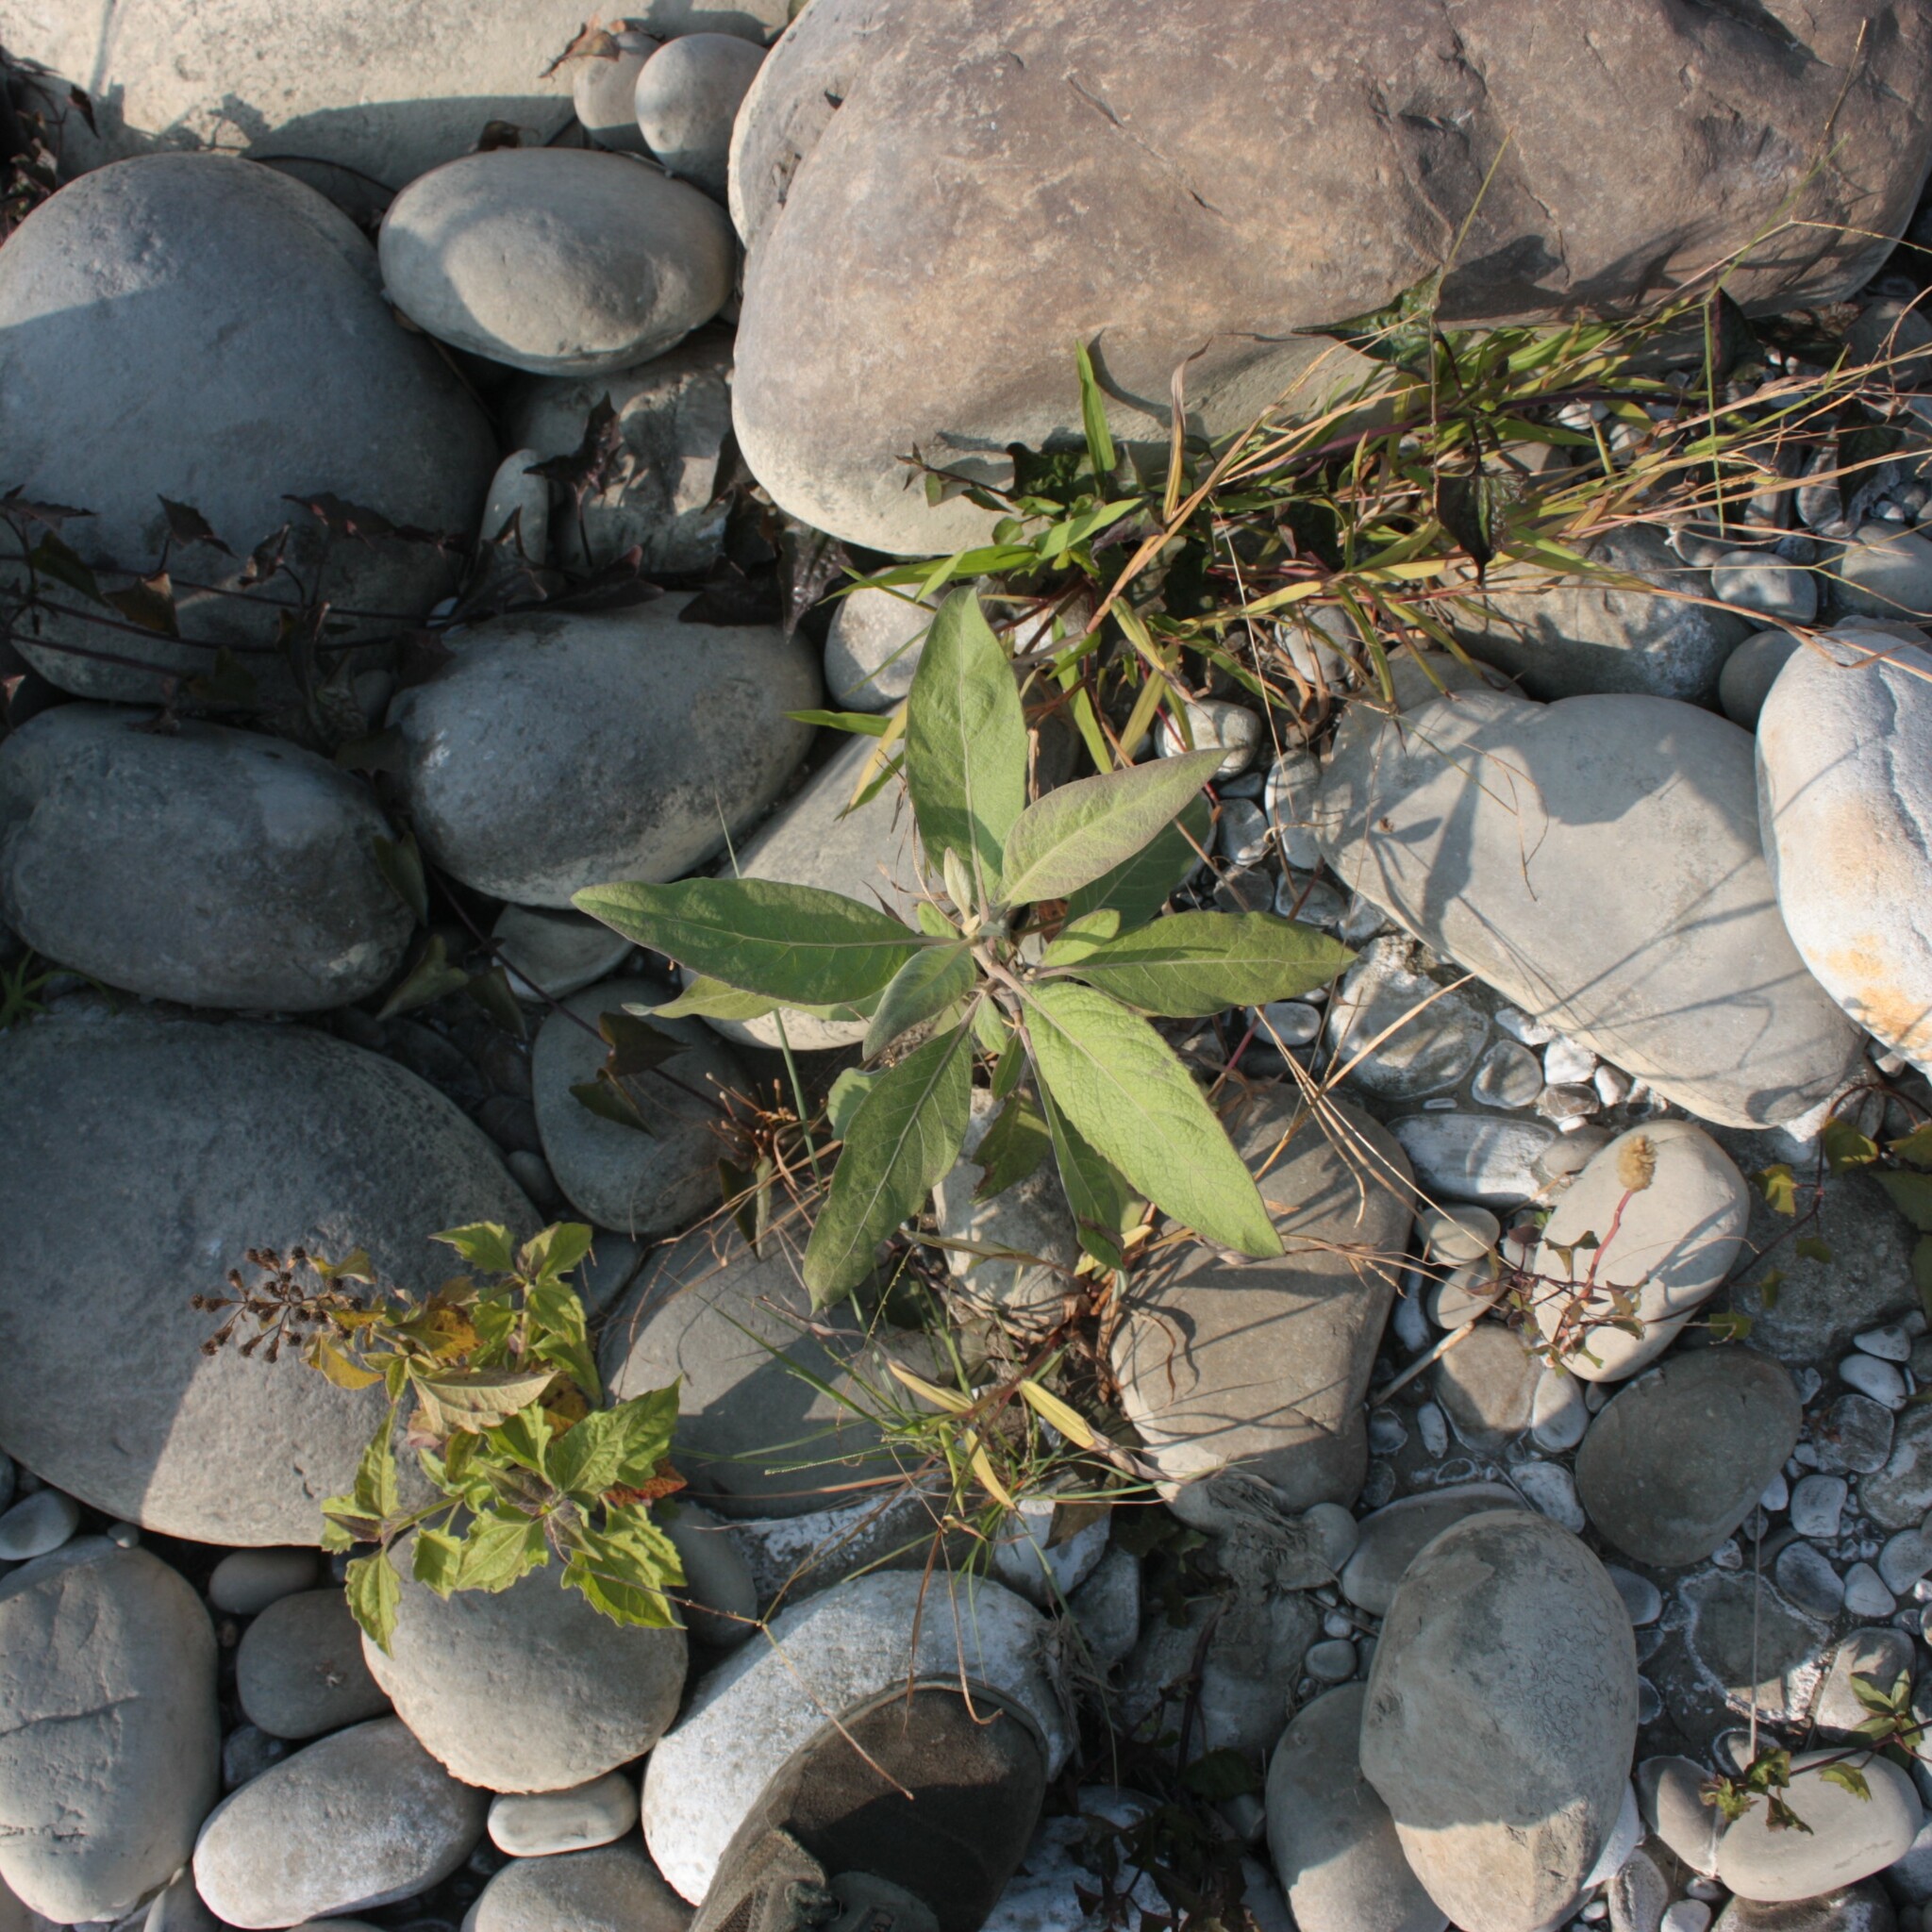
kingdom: Plantae
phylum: Tracheophyta
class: Magnoliopsida
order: Asterales
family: Asteraceae
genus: Pluchea
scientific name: Pluchea carolinensis
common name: Marsh fleabane
